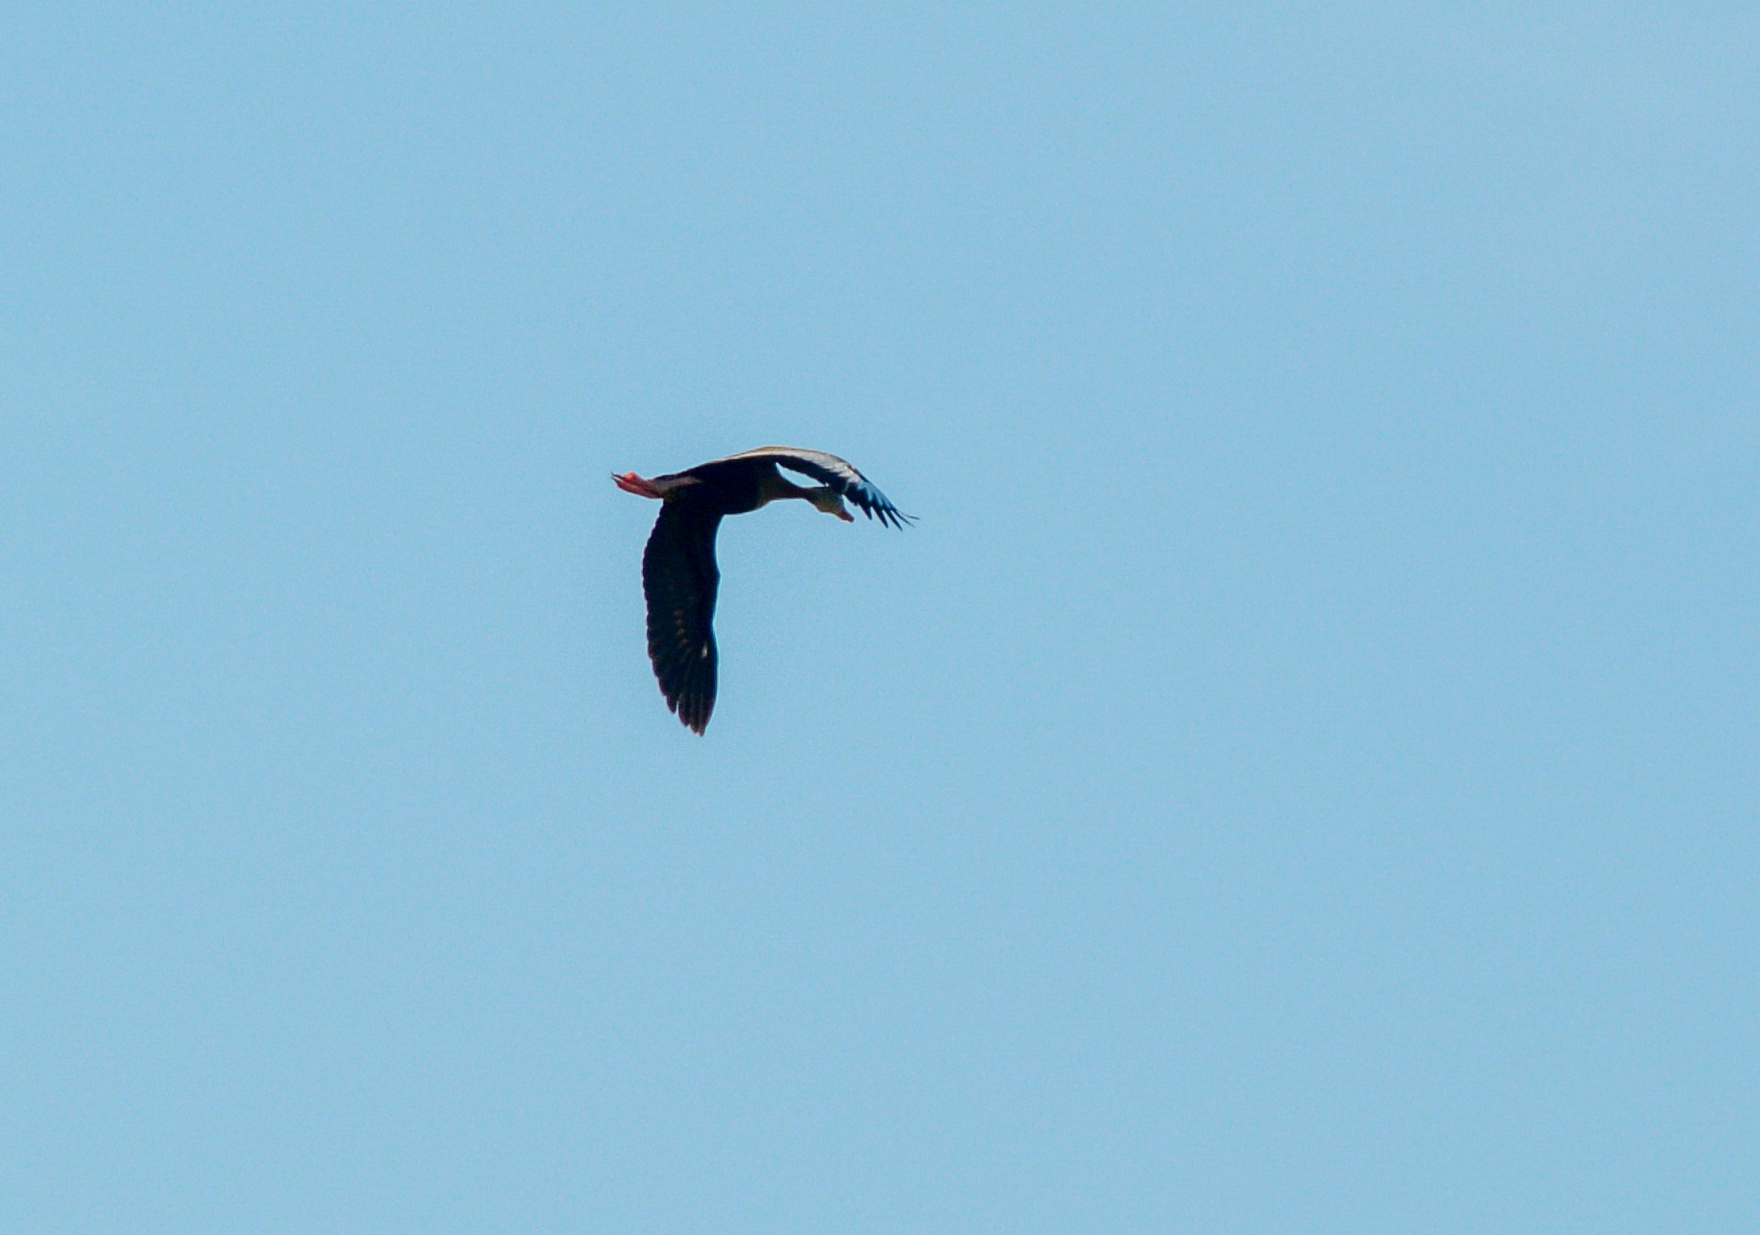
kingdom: Animalia
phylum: Chordata
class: Aves
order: Anseriformes
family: Anatidae
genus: Dendrocygna
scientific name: Dendrocygna autumnalis
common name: Black-bellied whistling duck
